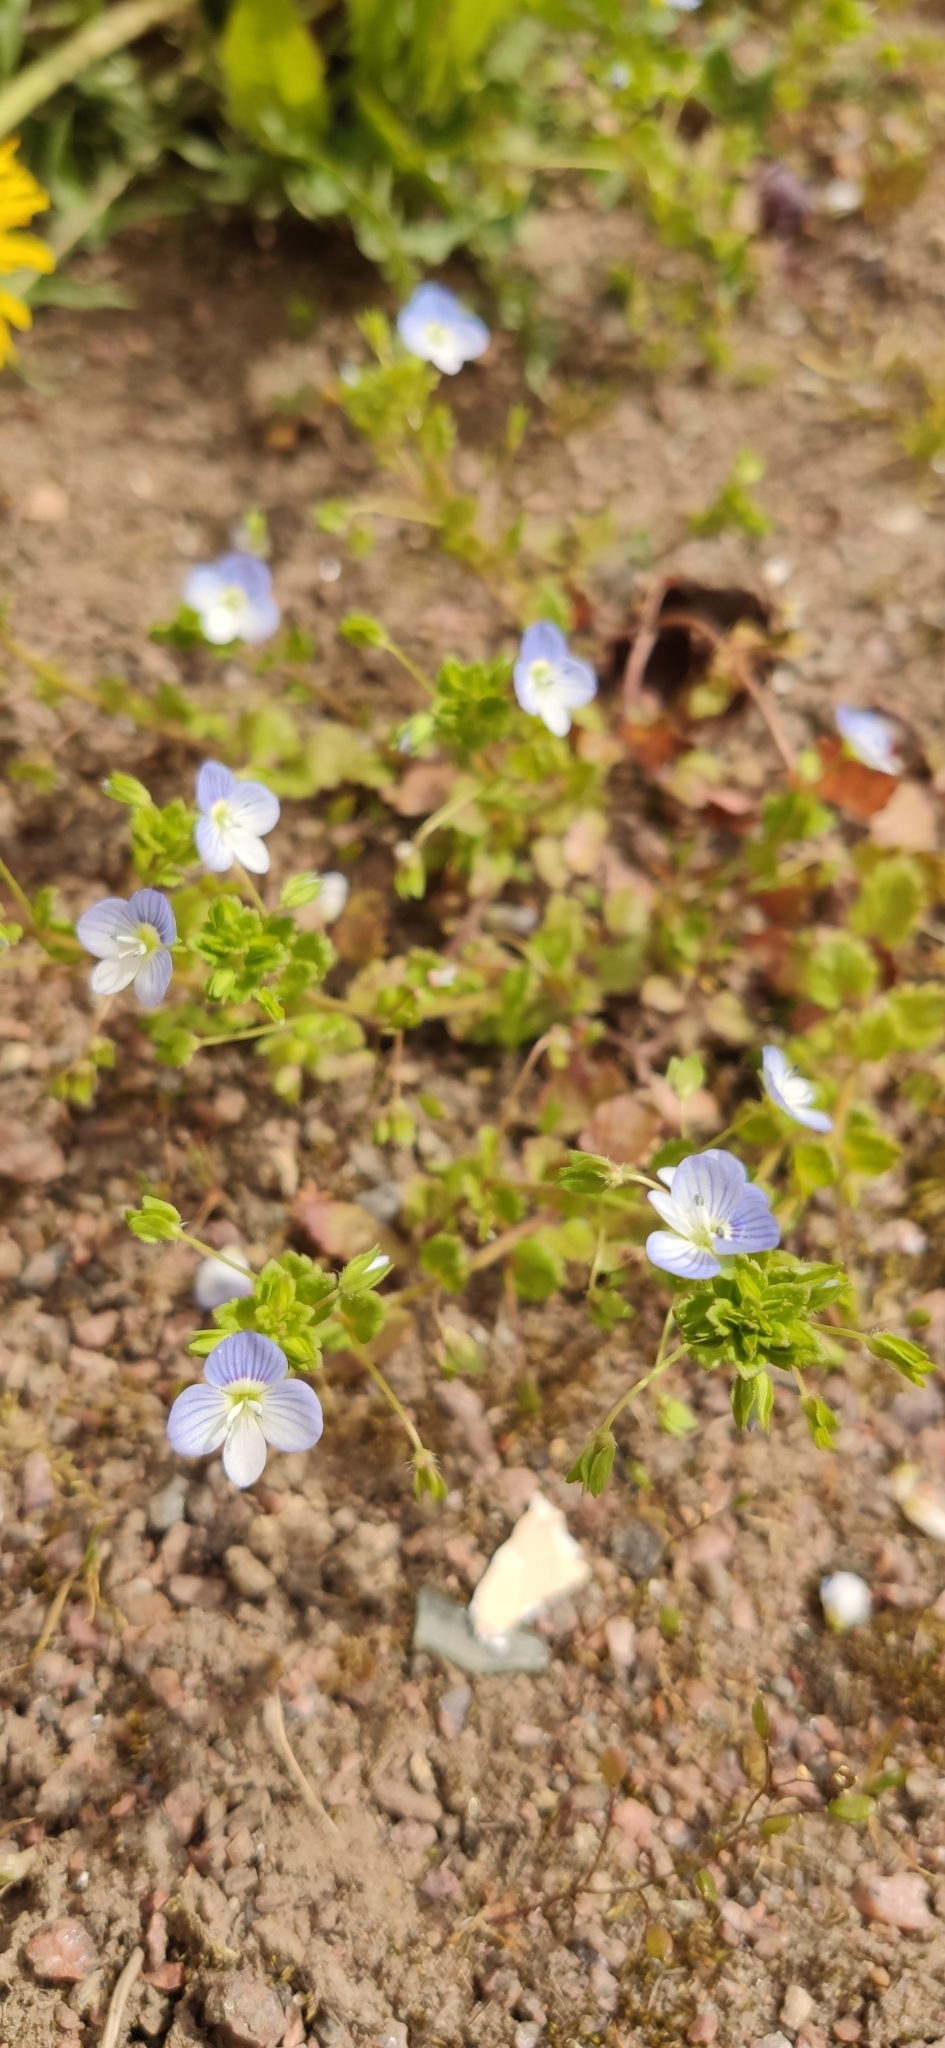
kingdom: Plantae
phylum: Tracheophyta
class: Magnoliopsida
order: Lamiales
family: Plantaginaceae
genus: Veronica
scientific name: Veronica persica
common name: Common field-speedwell
